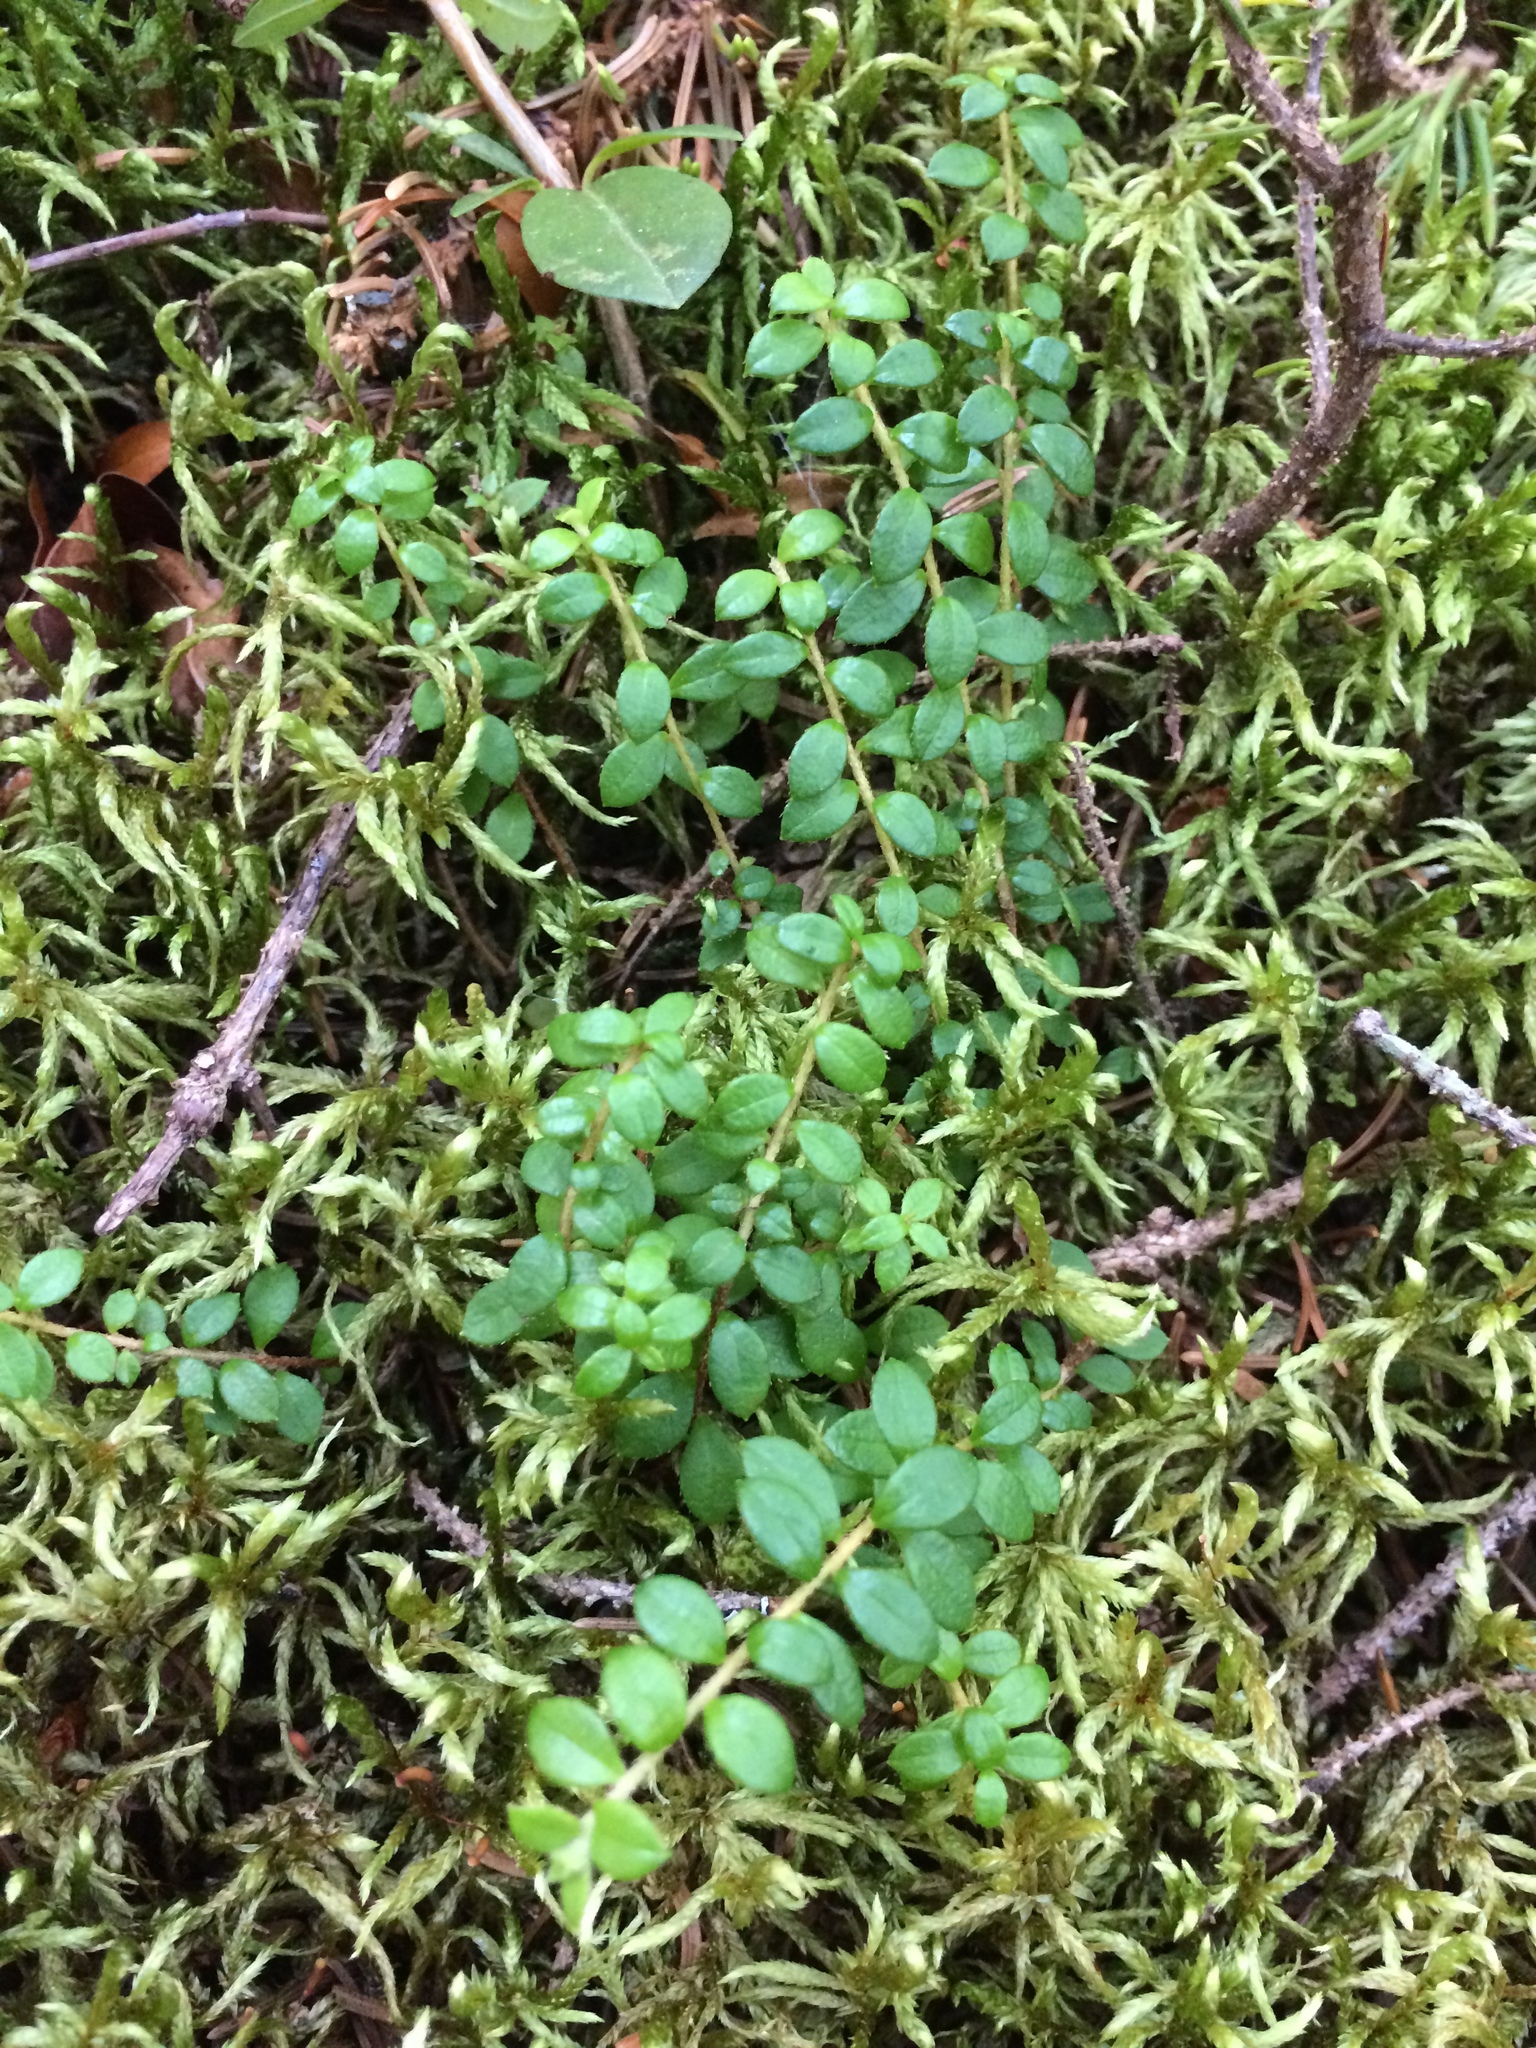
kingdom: Plantae
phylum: Tracheophyta
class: Magnoliopsida
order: Ericales
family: Ericaceae
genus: Gaultheria
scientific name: Gaultheria hispidula
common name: Cancer wintergreen
